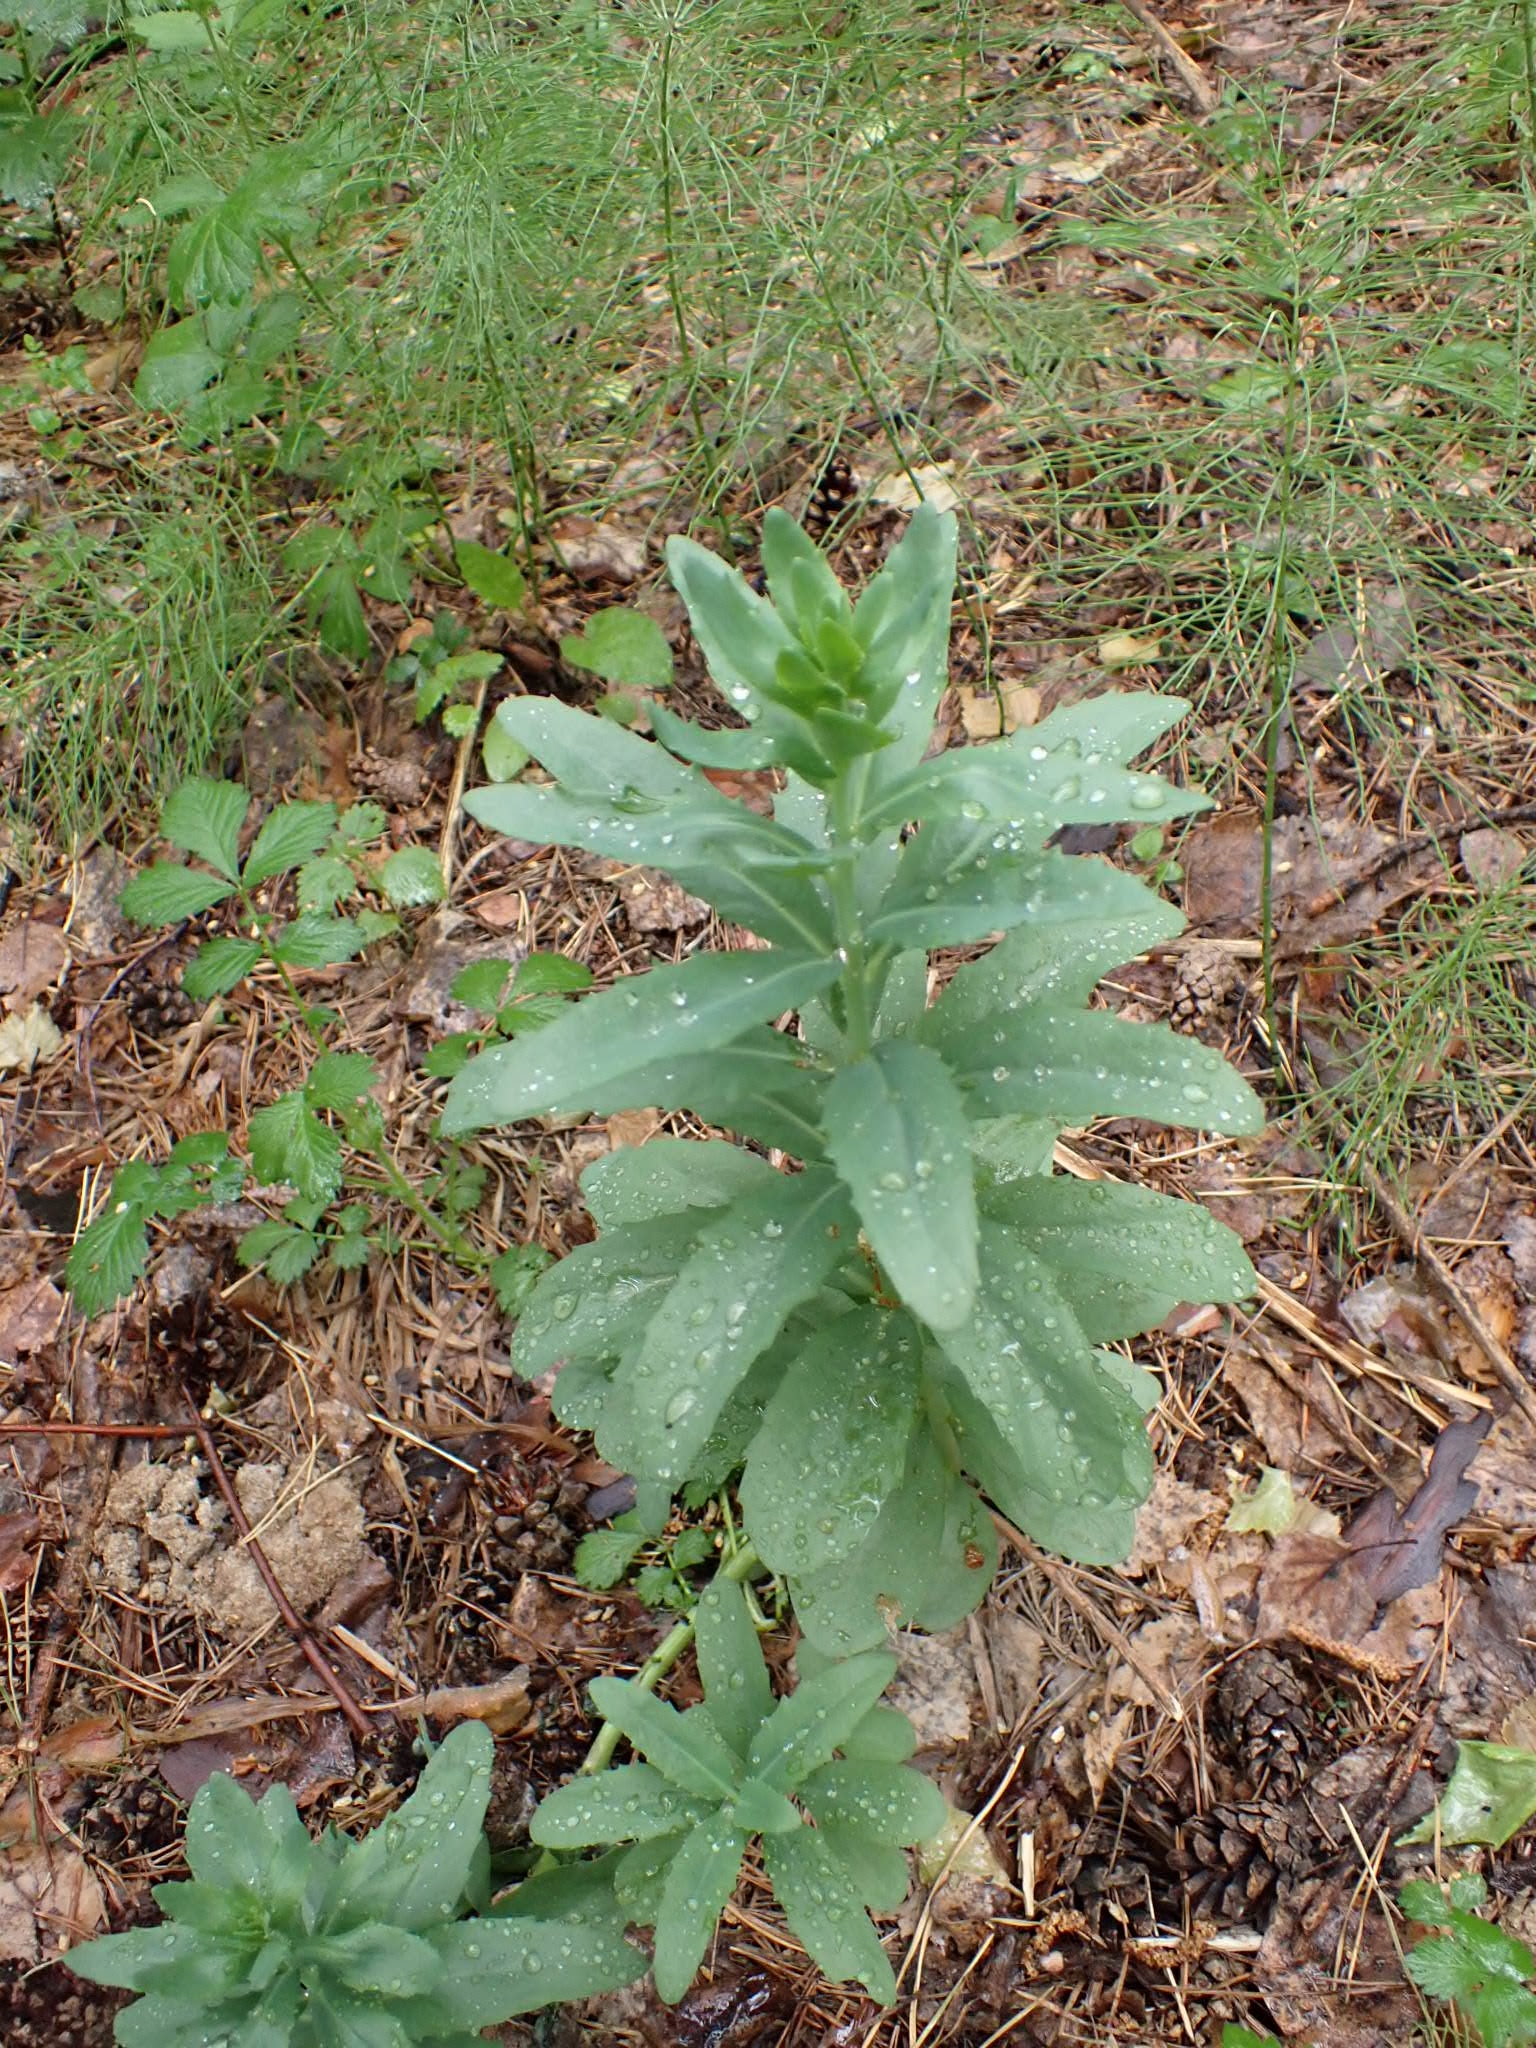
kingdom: Plantae
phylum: Tracheophyta
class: Magnoliopsida
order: Saxifragales
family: Crassulaceae
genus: Hylotelephium
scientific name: Hylotelephium telephium
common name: Live-forever
